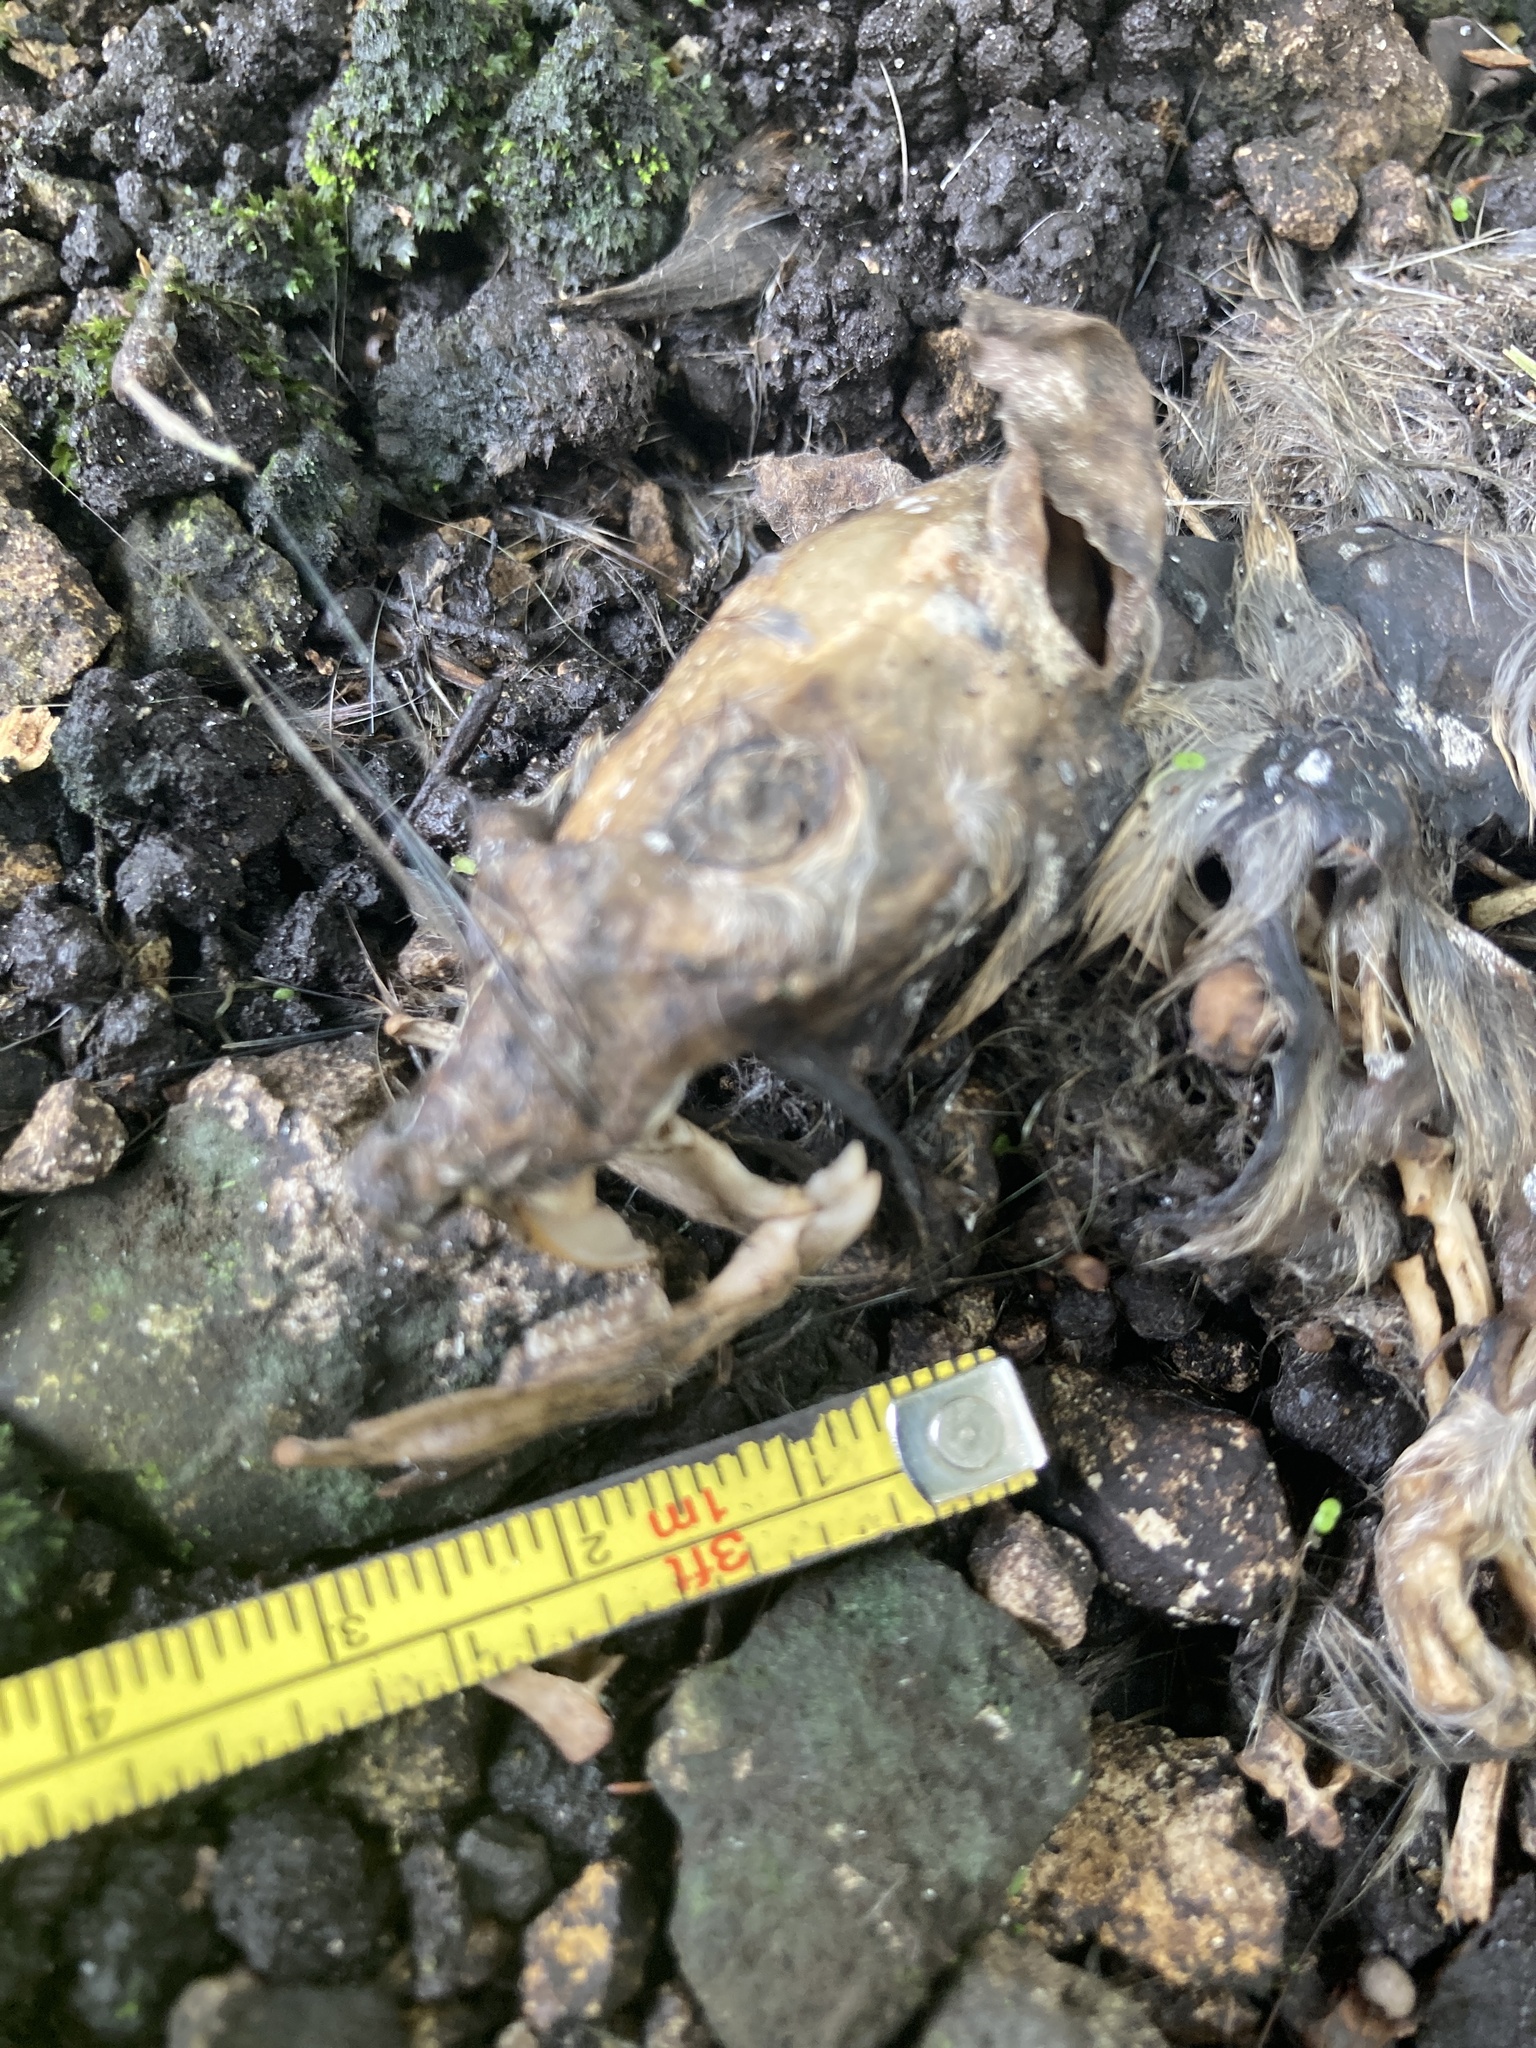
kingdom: Animalia
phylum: Chordata
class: Mammalia
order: Rodentia
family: Muridae
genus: Rattus
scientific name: Rattus rattus
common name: Black rat
